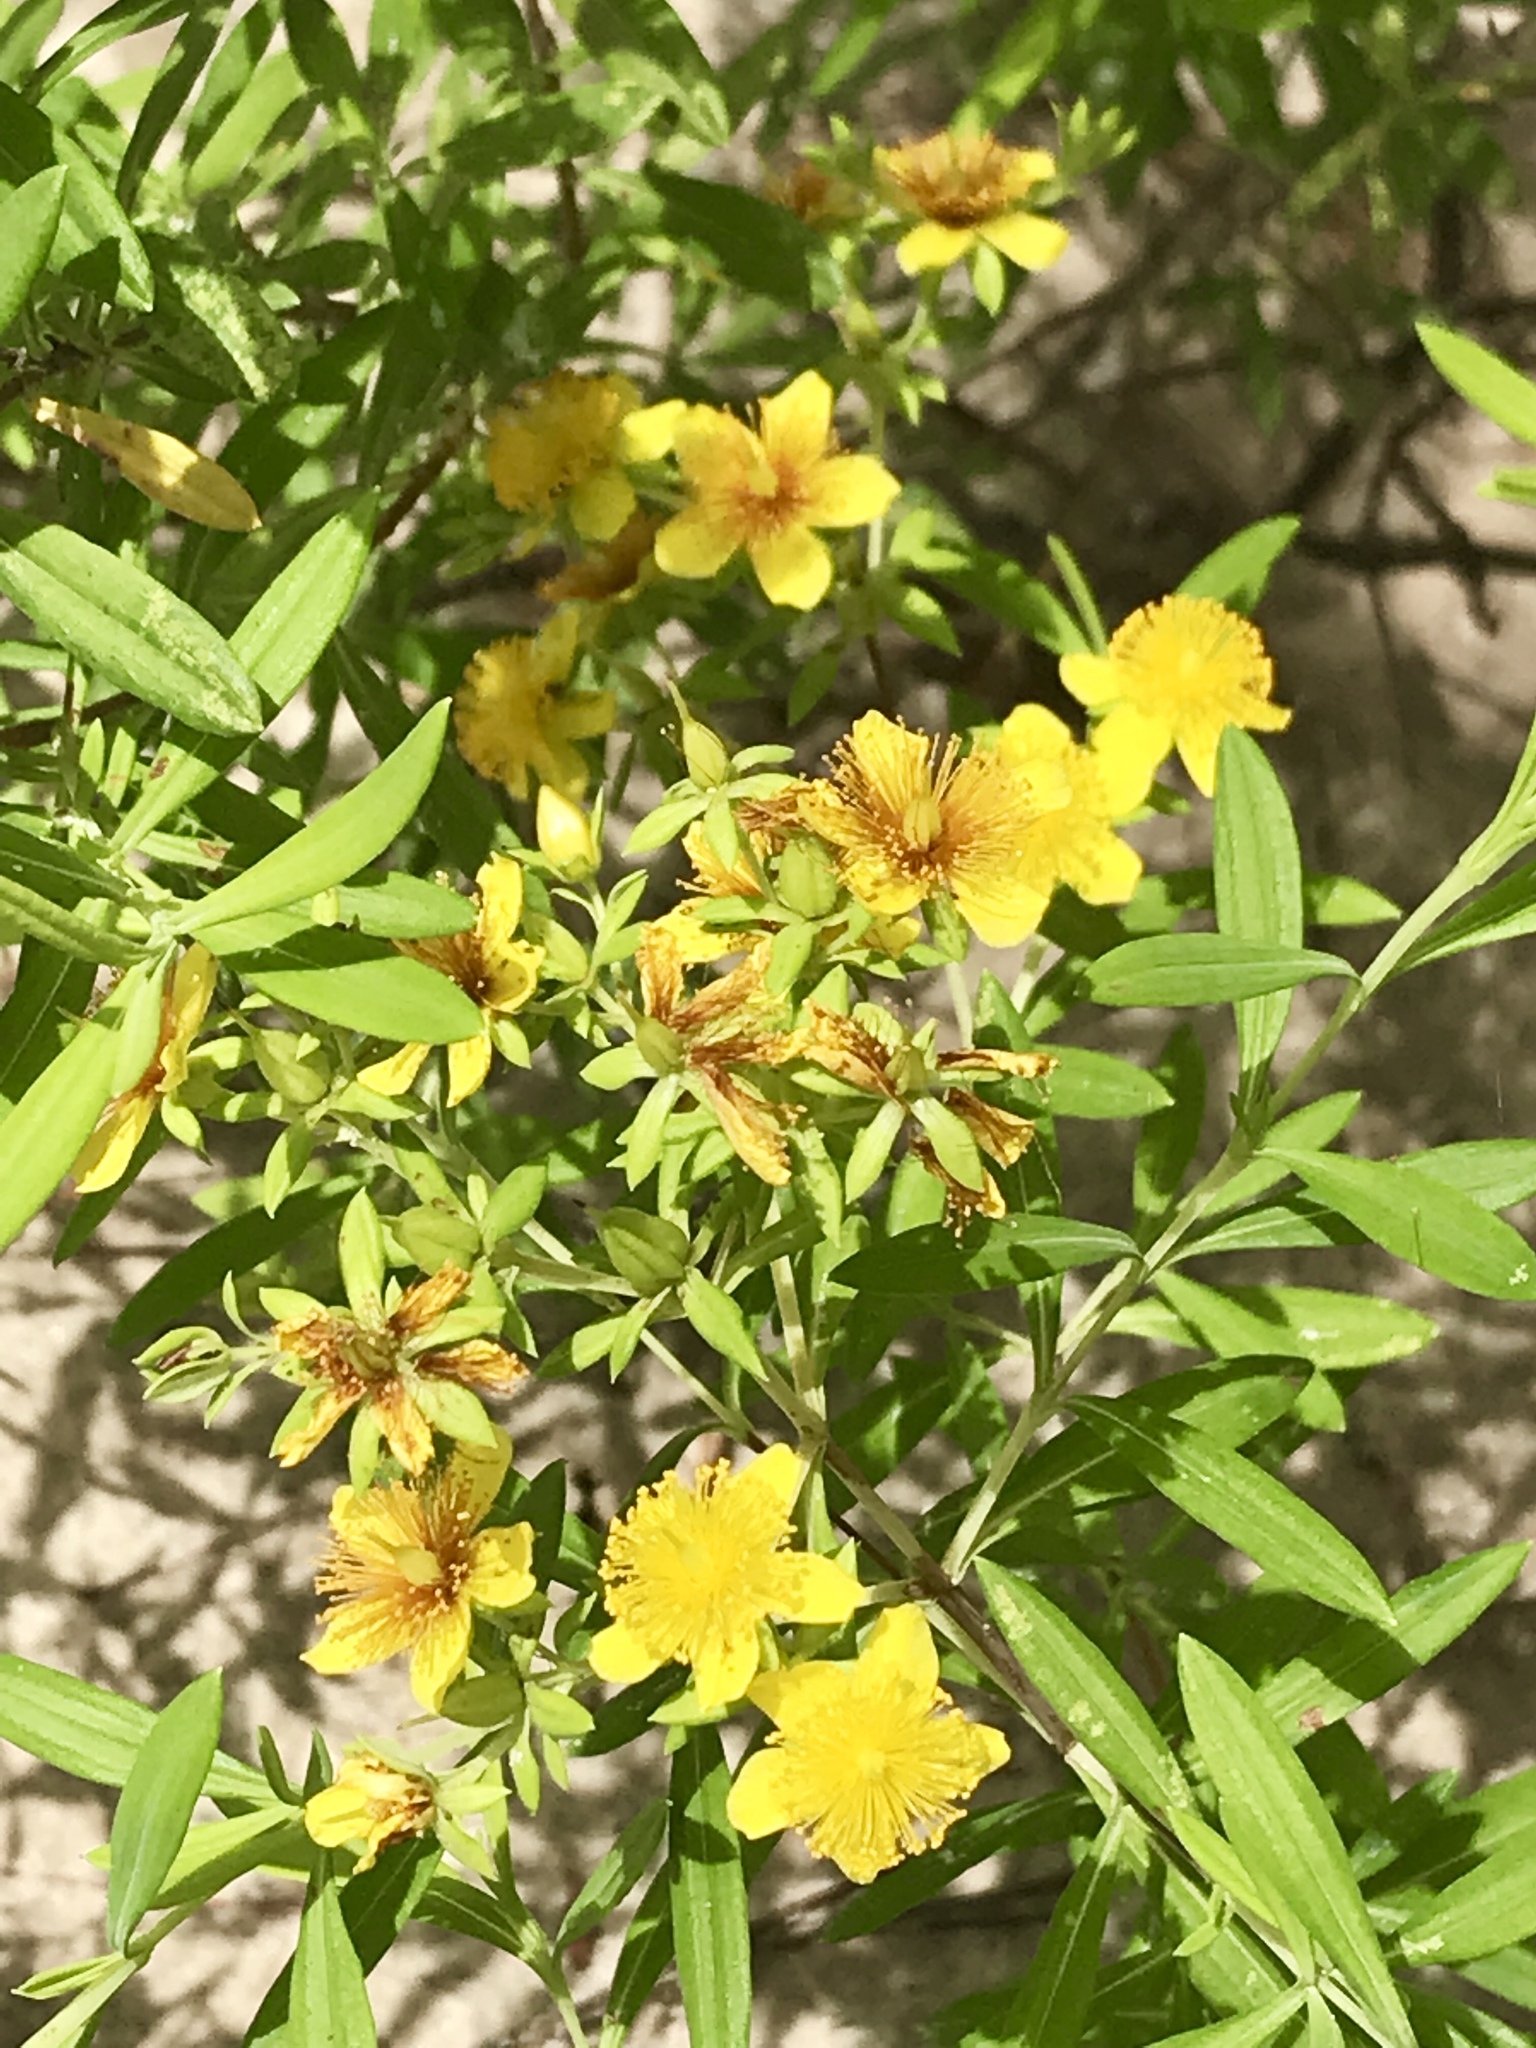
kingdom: Plantae
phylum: Tracheophyta
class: Magnoliopsida
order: Malpighiales
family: Hypericaceae
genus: Hypericum
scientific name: Hypericum lobocarpum
